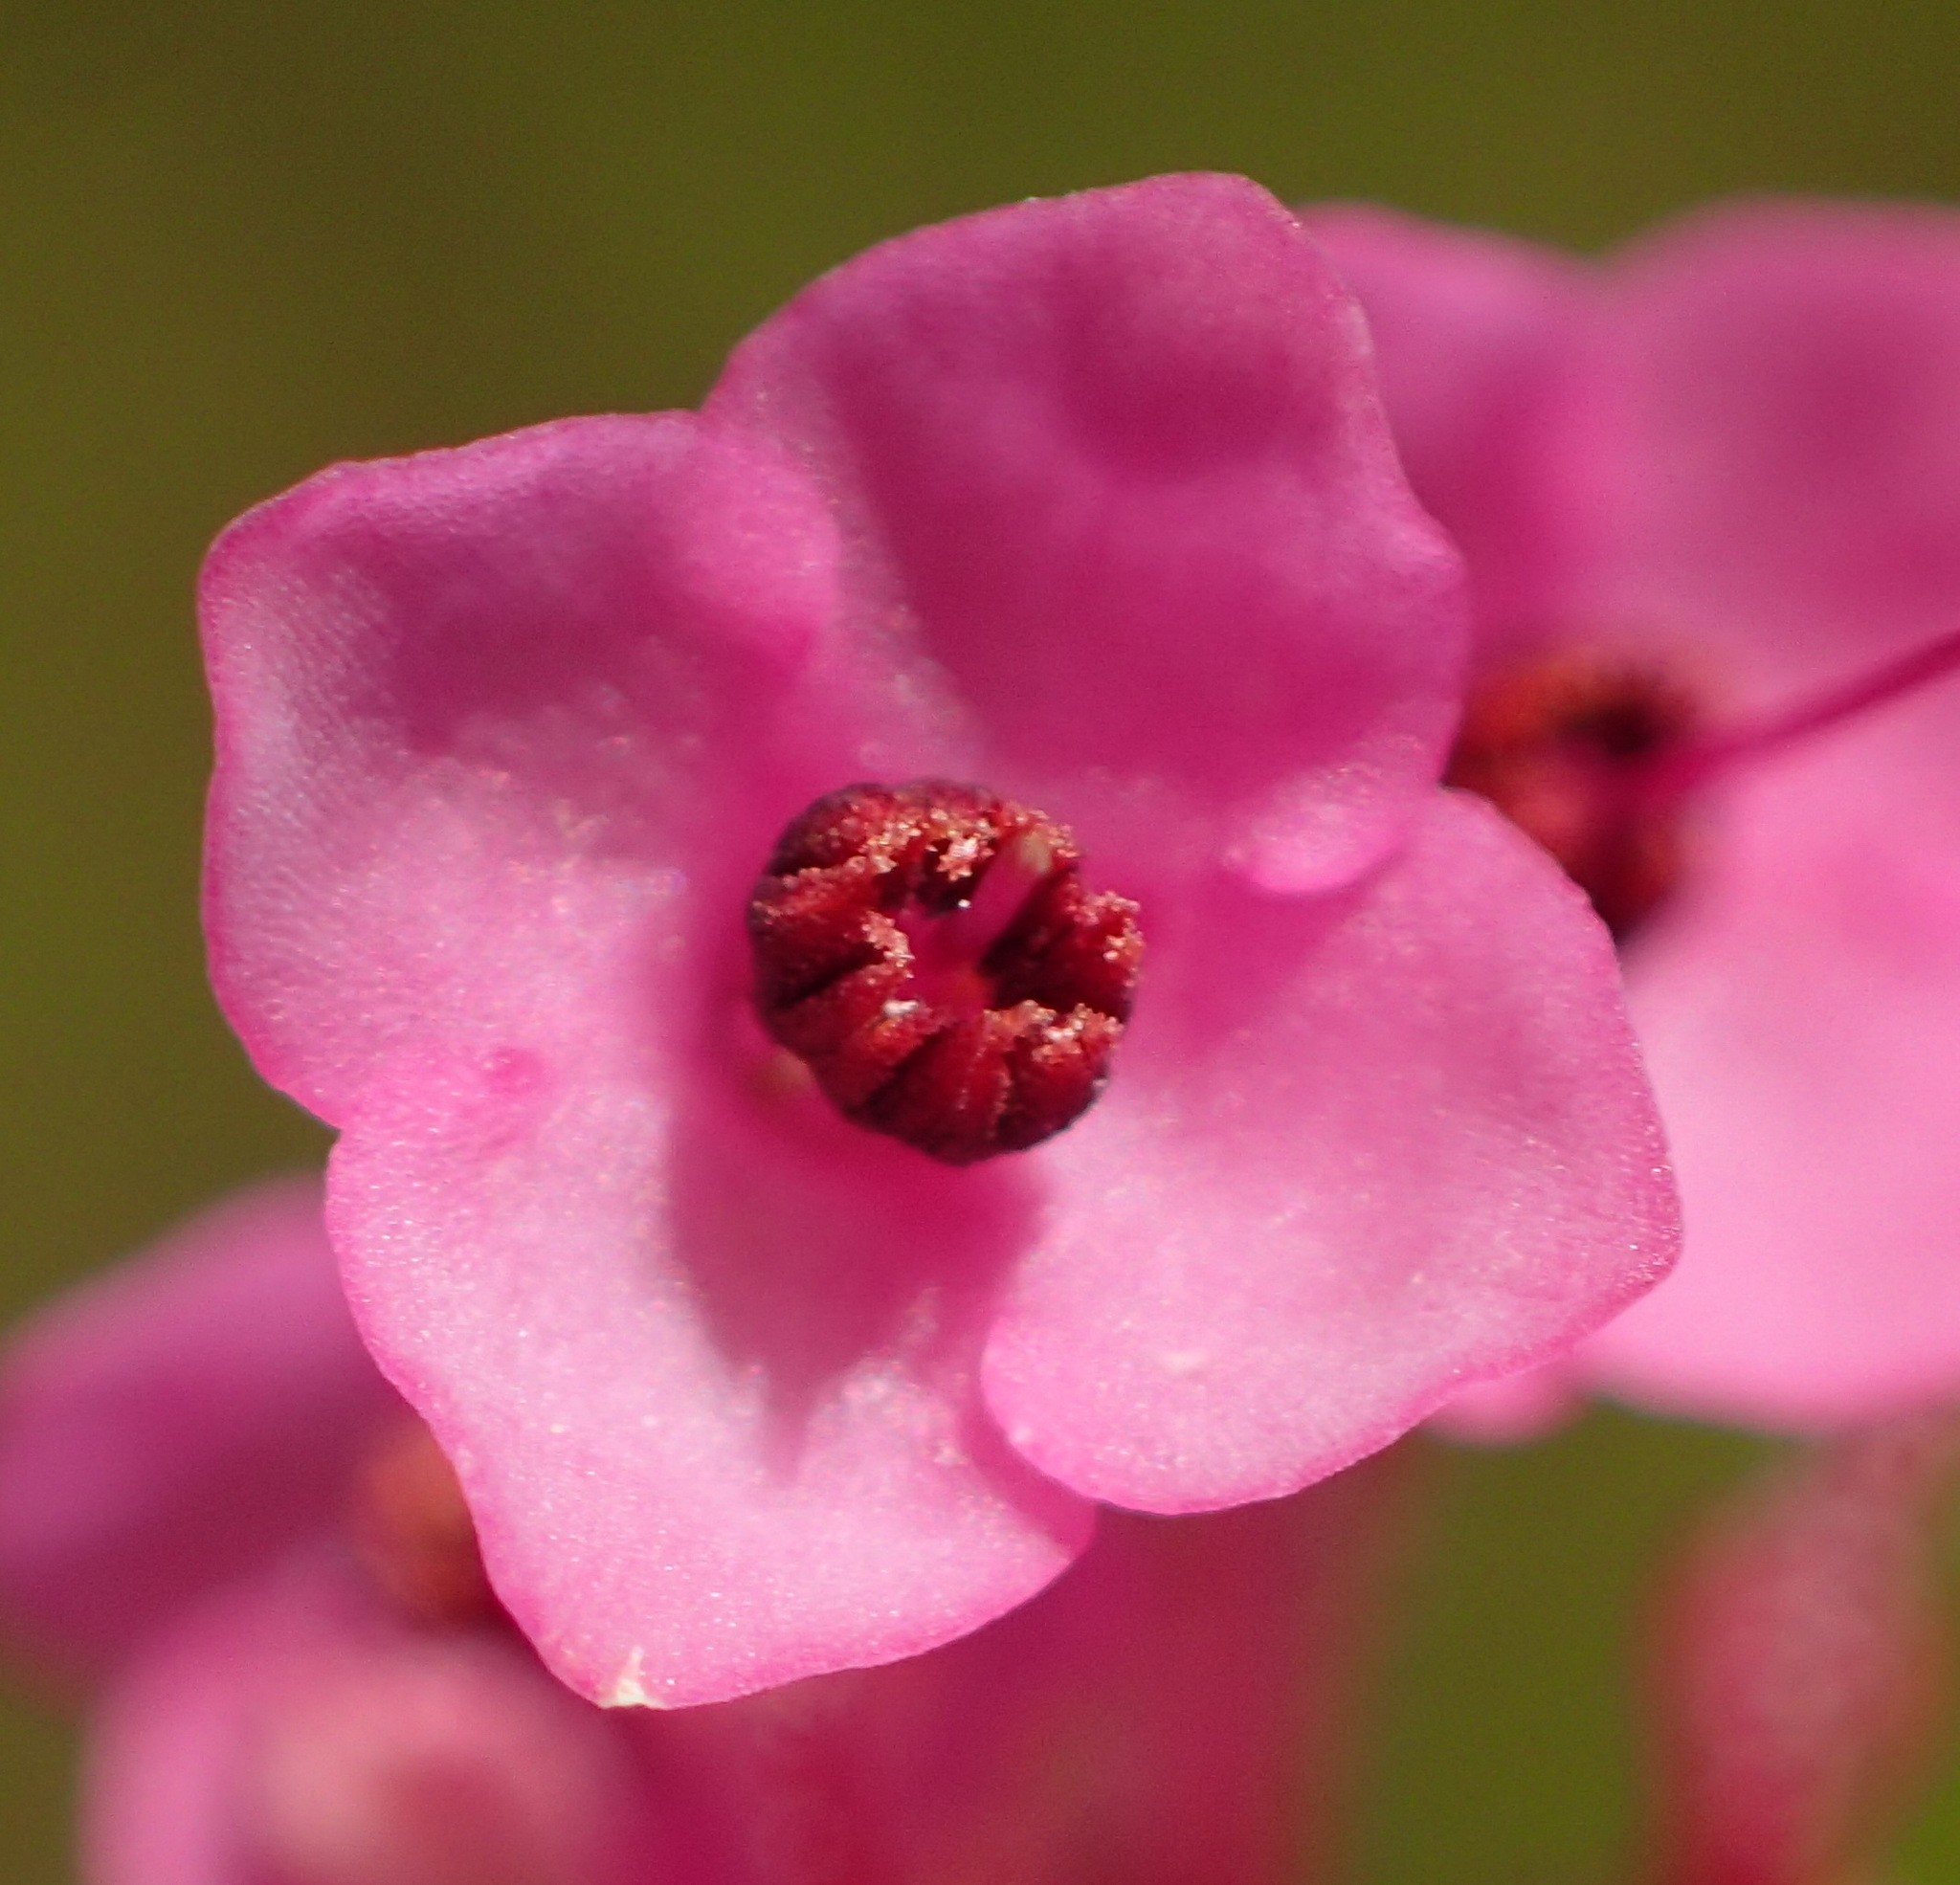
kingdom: Plantae
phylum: Tracheophyta
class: Magnoliopsida
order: Ericales
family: Ericaceae
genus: Erica
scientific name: Erica seriphiifolia
